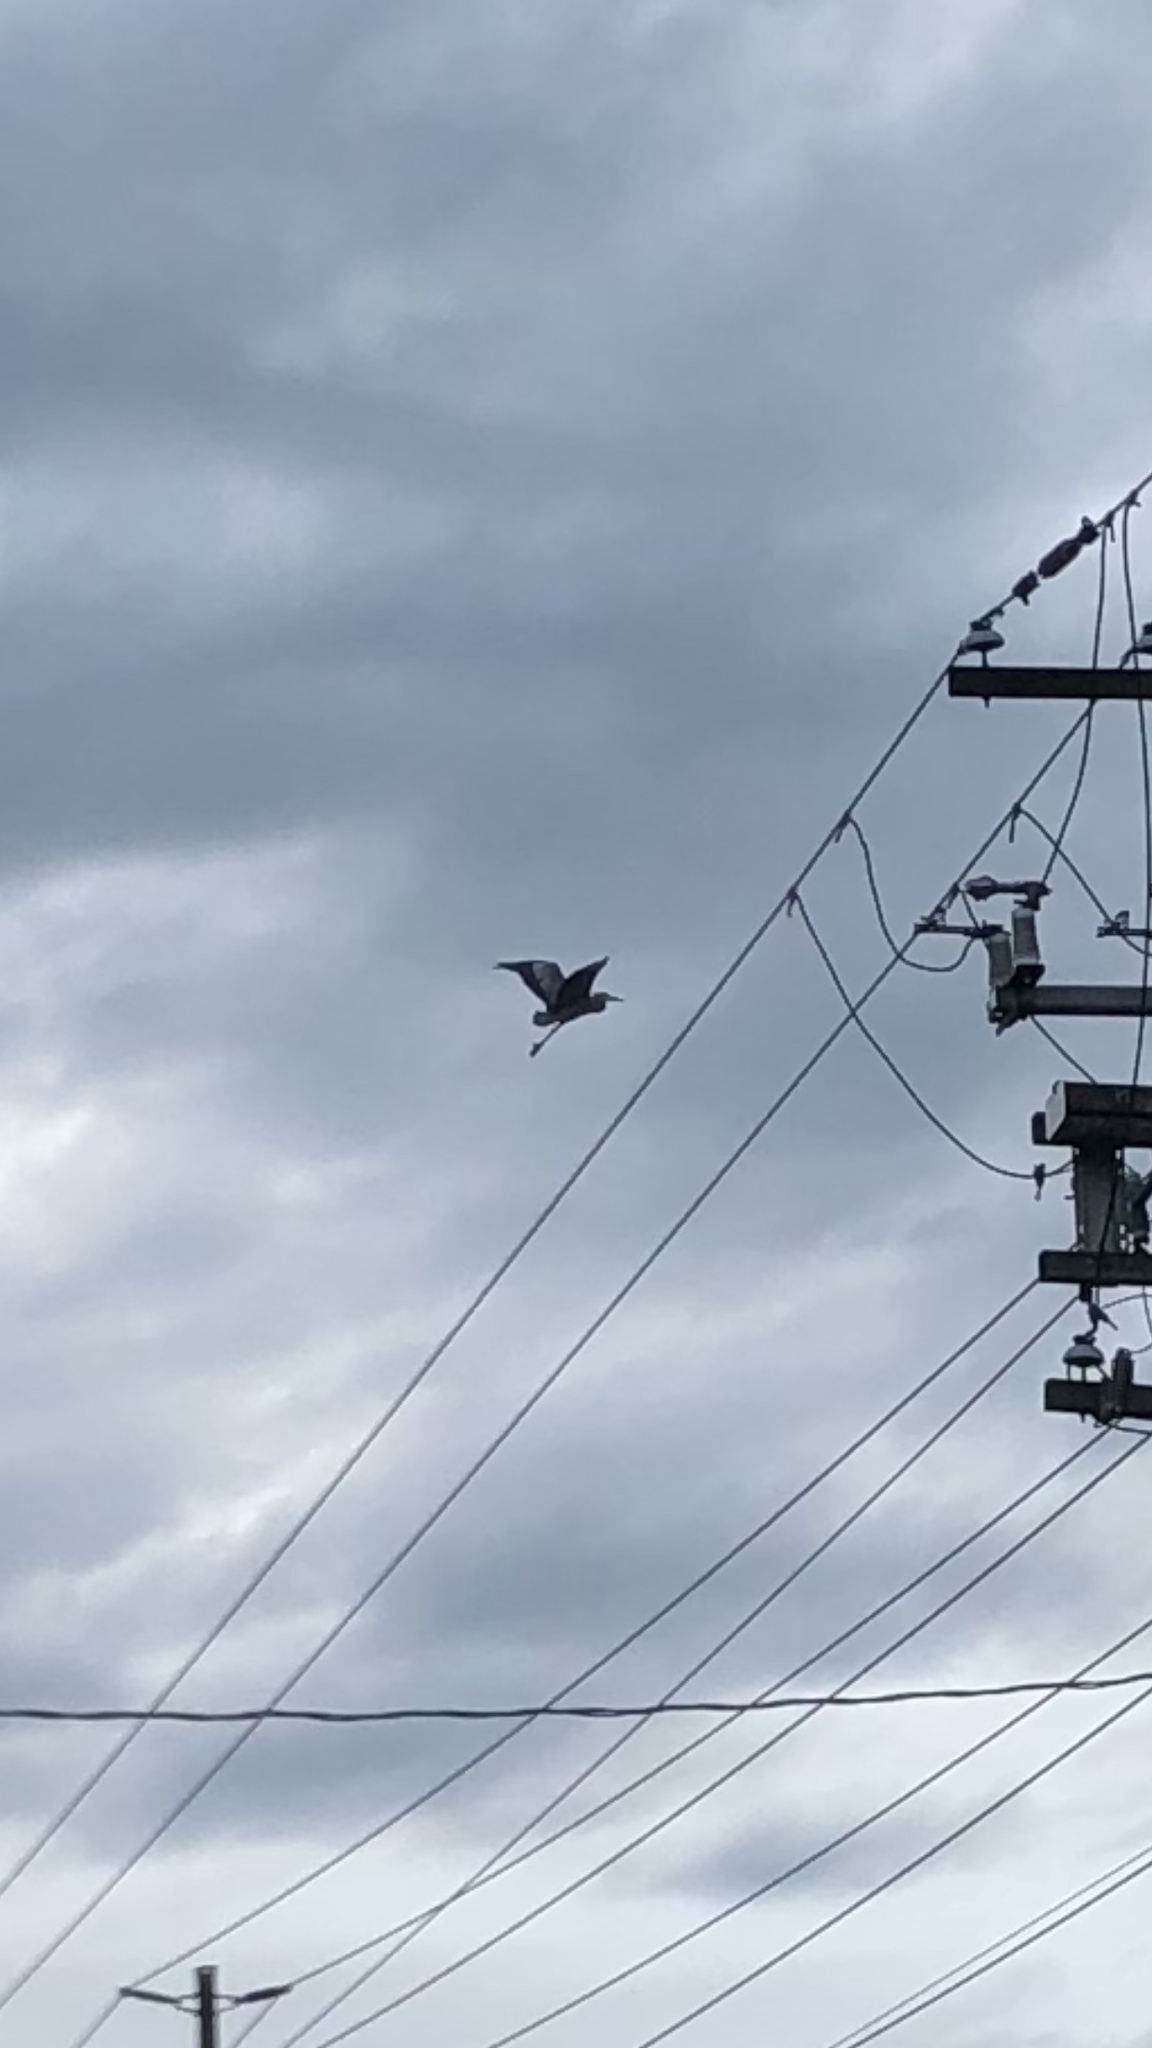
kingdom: Animalia
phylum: Chordata
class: Aves
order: Pelecaniformes
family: Ardeidae
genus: Ardea
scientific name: Ardea herodias
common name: Great blue heron
